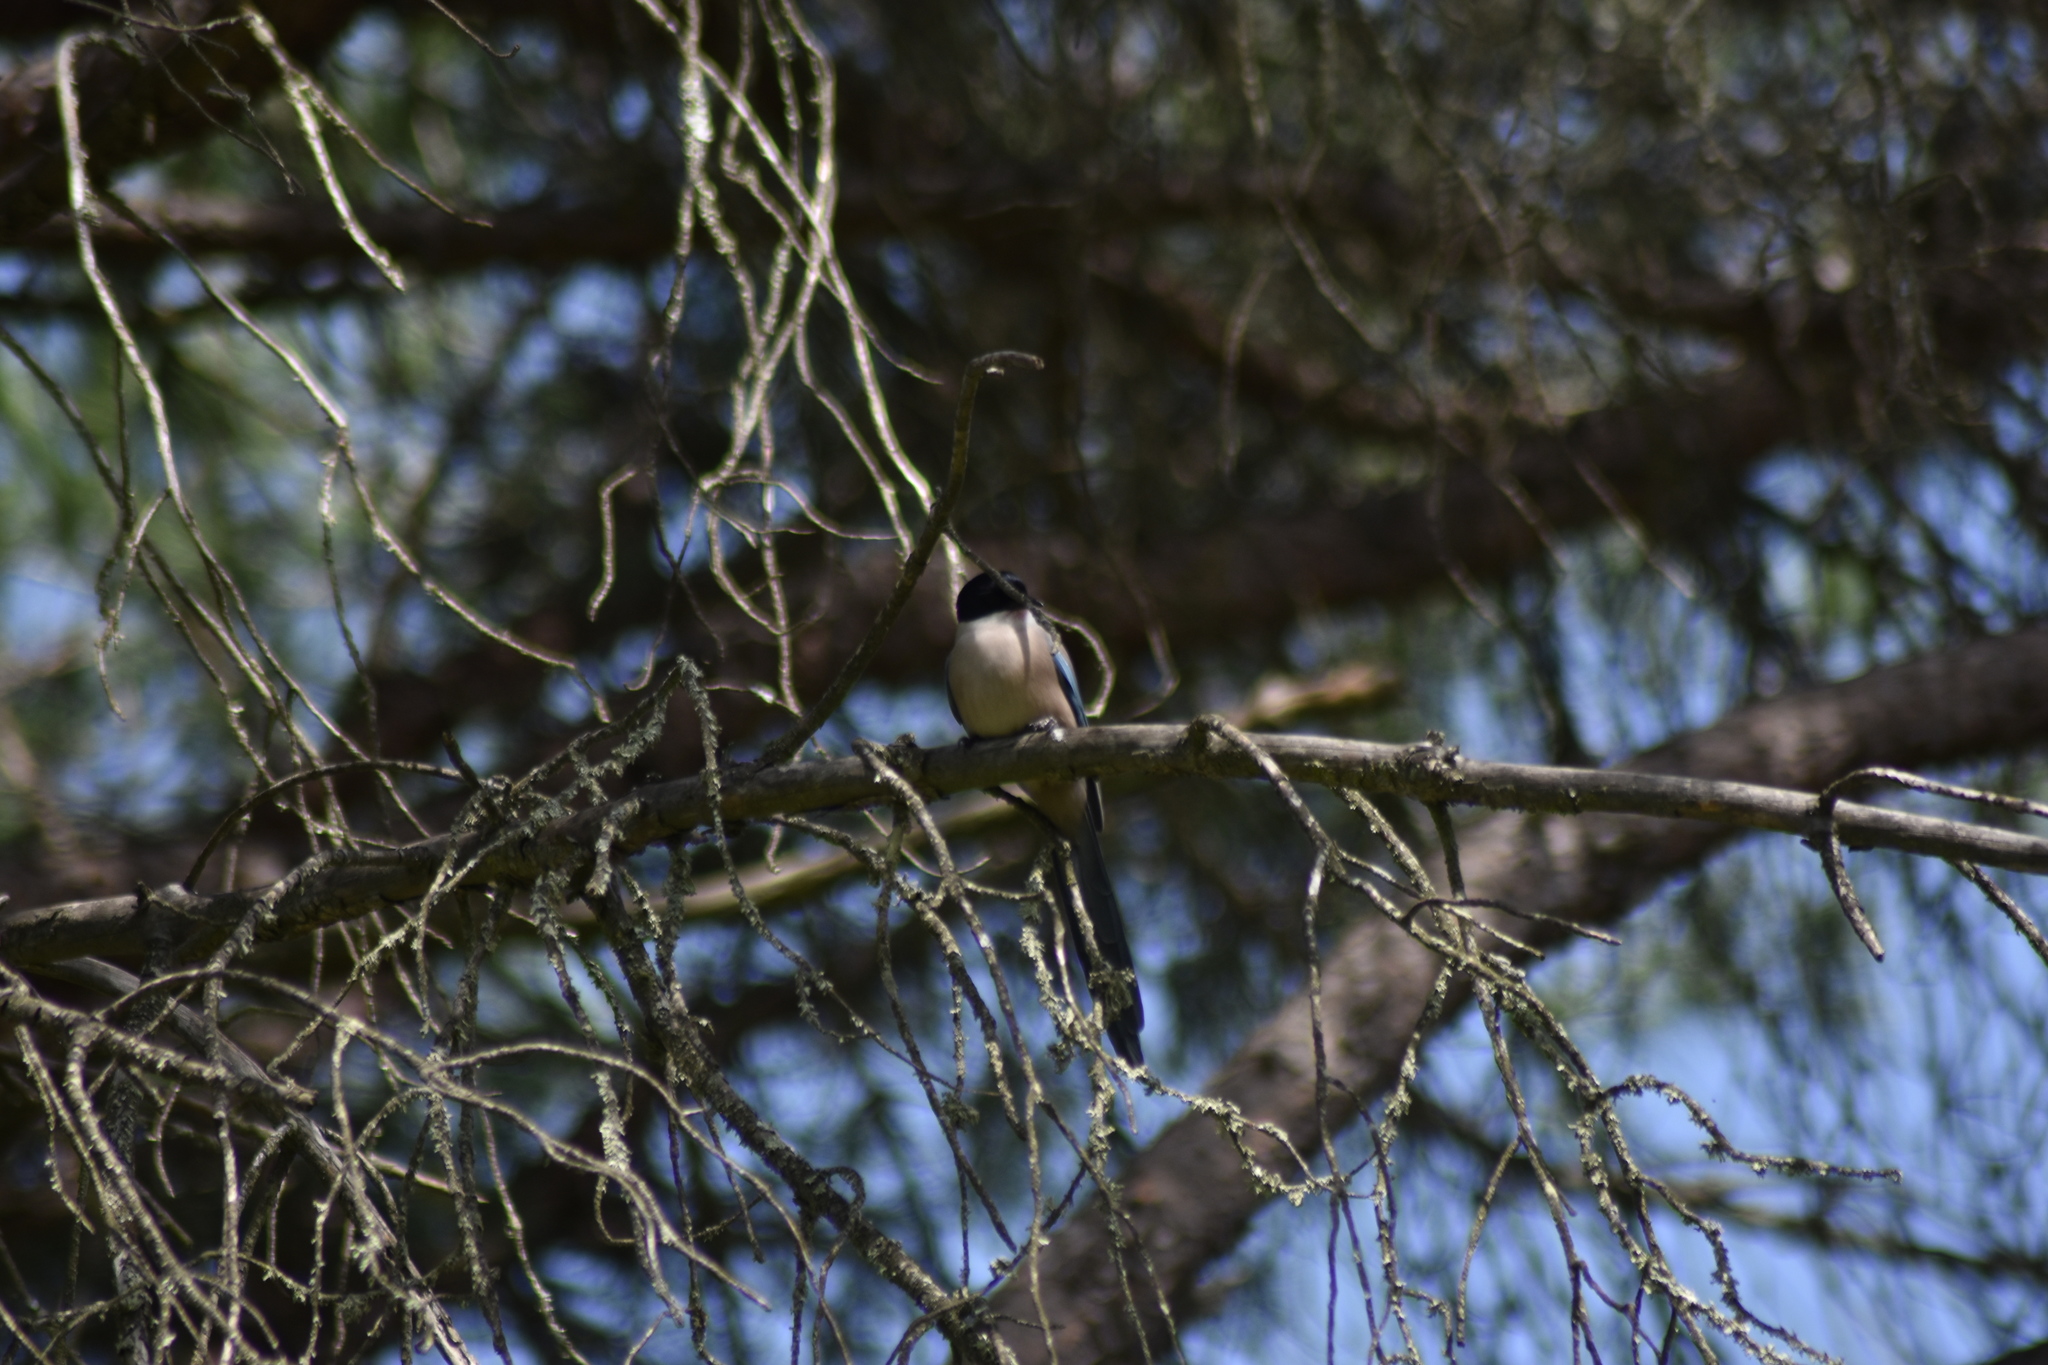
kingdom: Animalia
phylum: Chordata
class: Aves
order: Passeriformes
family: Corvidae
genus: Cyanopica
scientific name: Cyanopica cooki
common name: Iberian magpie
